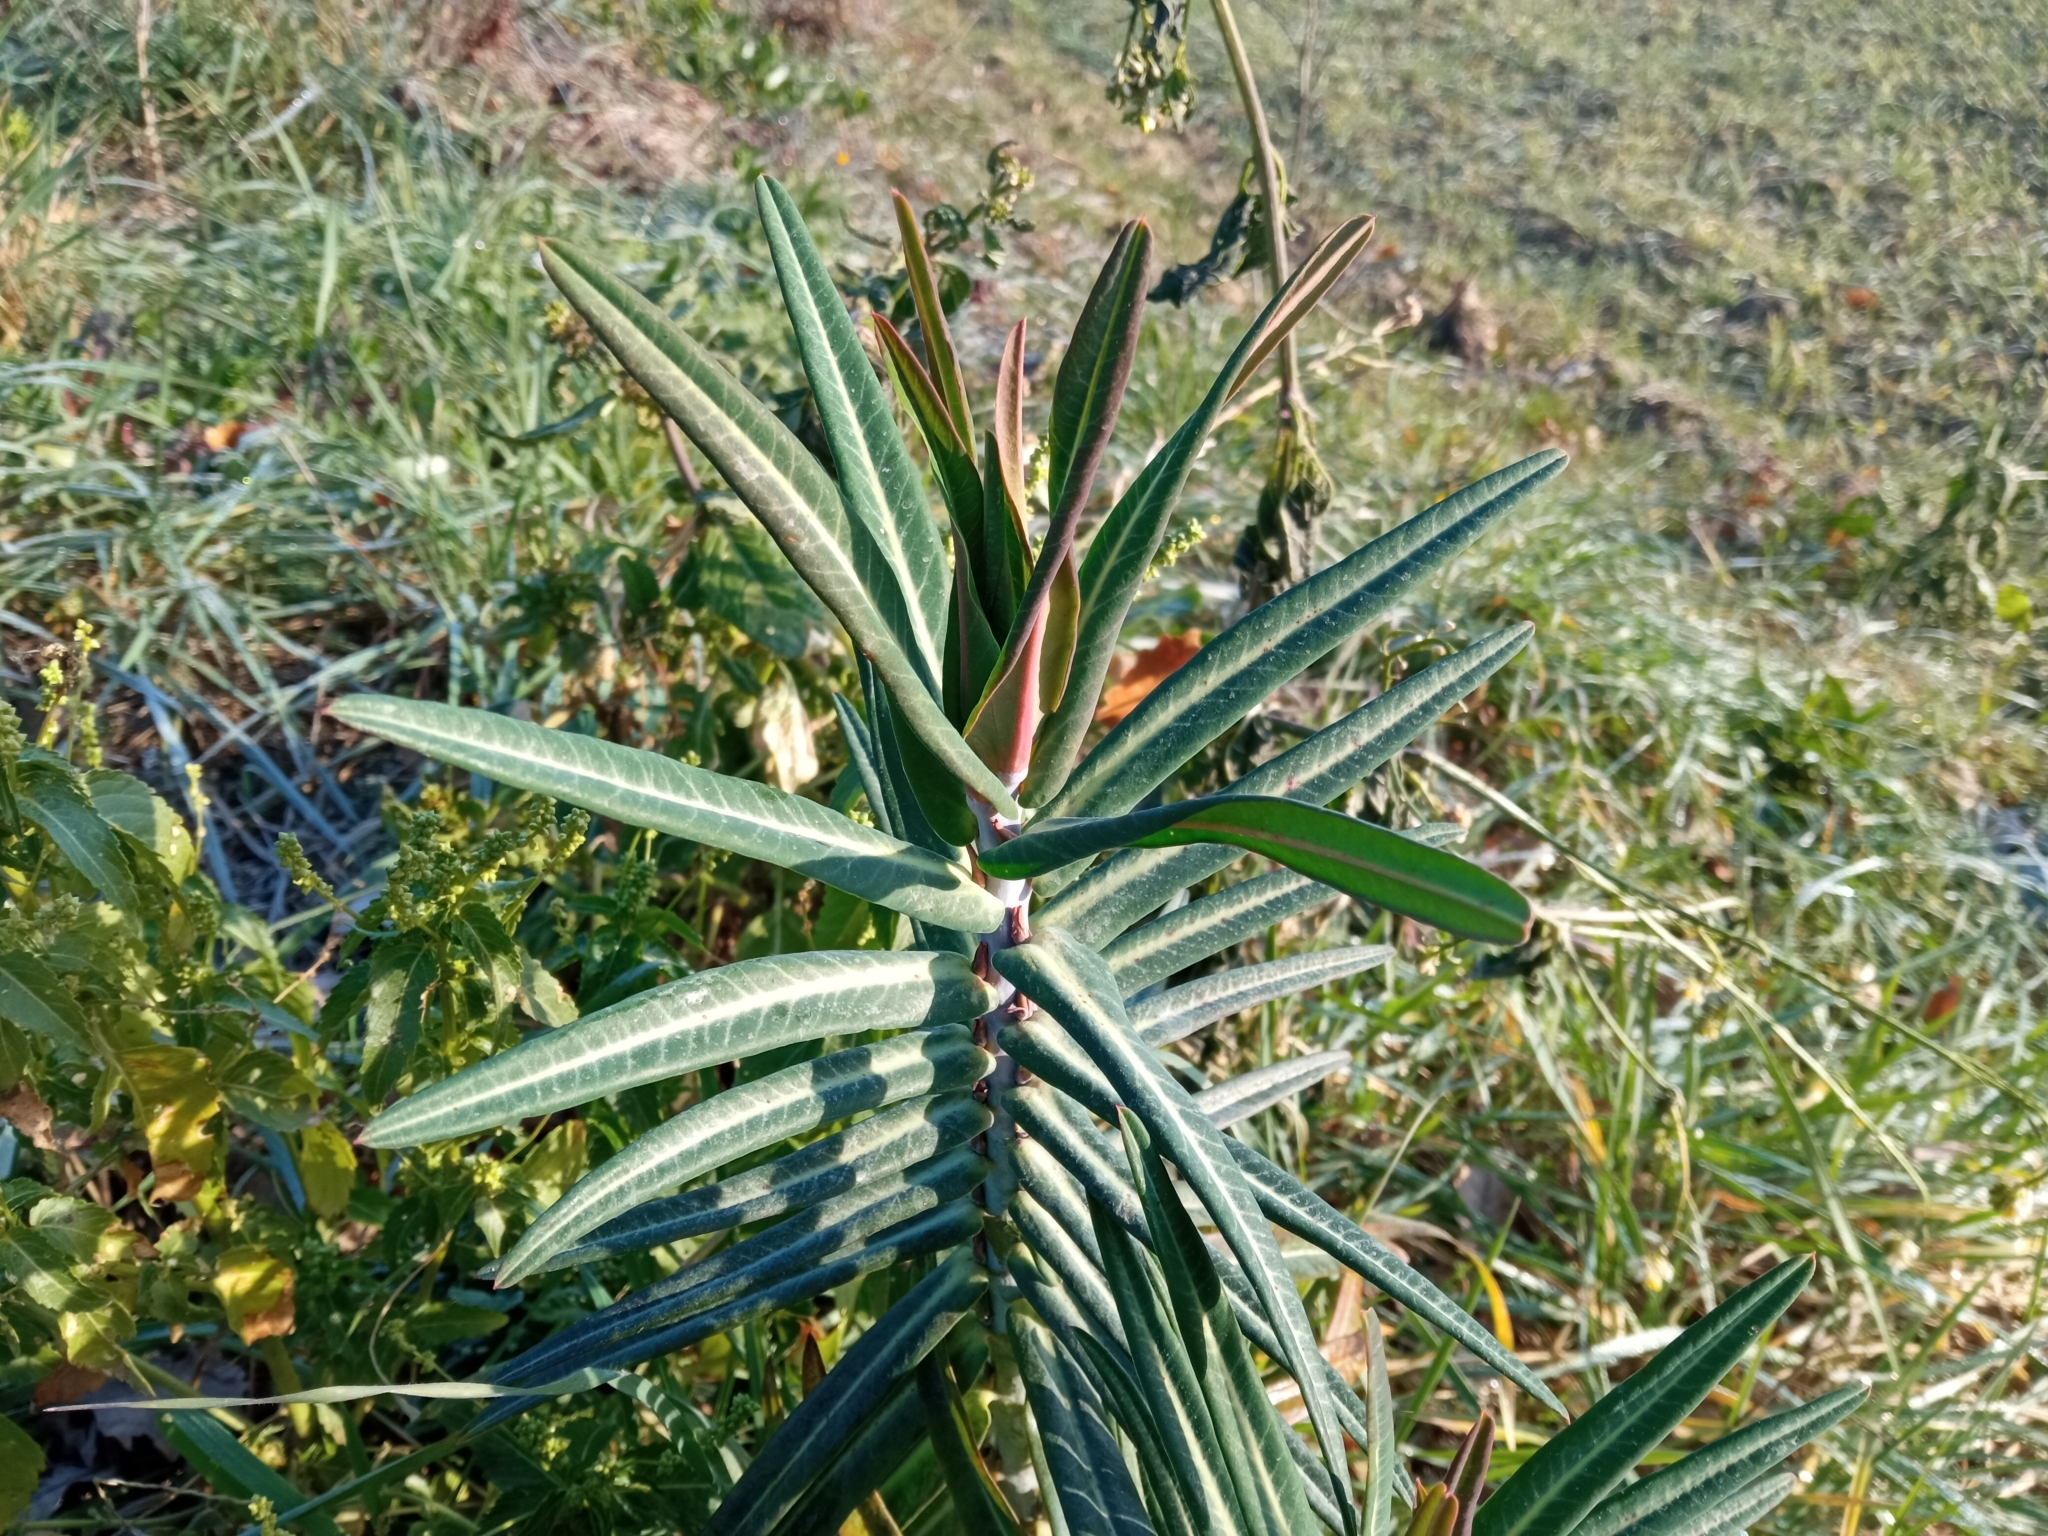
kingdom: Plantae
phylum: Tracheophyta
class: Magnoliopsida
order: Malpighiales
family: Euphorbiaceae
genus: Euphorbia
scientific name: Euphorbia lathyris
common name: Caper spurge
